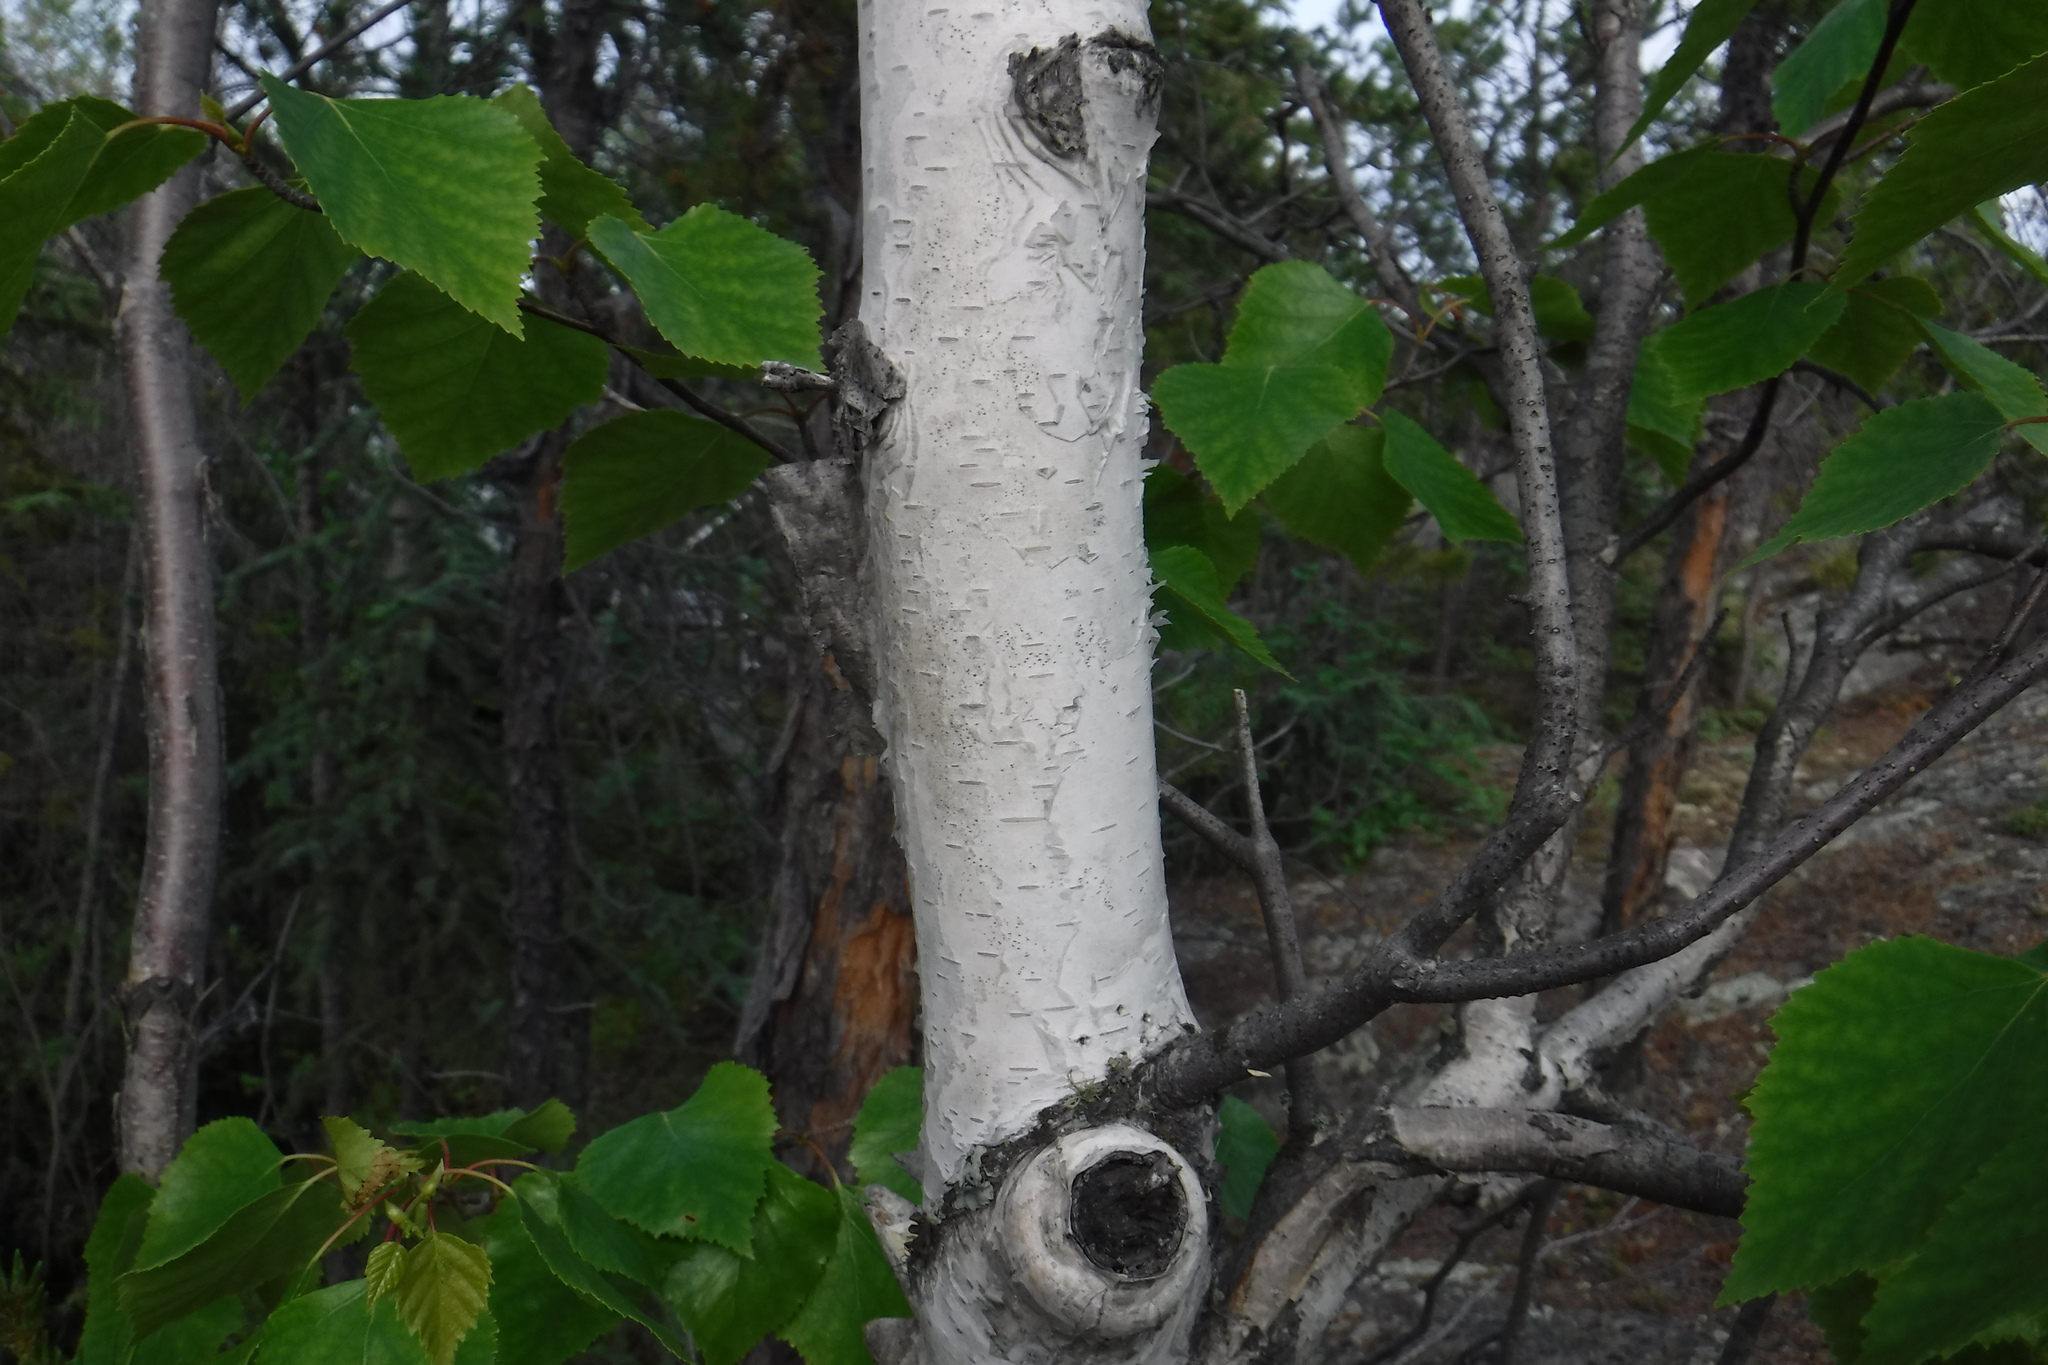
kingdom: Plantae
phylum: Tracheophyta
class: Magnoliopsida
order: Fagales
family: Betulaceae
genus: Betula
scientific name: Betula pendula
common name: Silver birch
